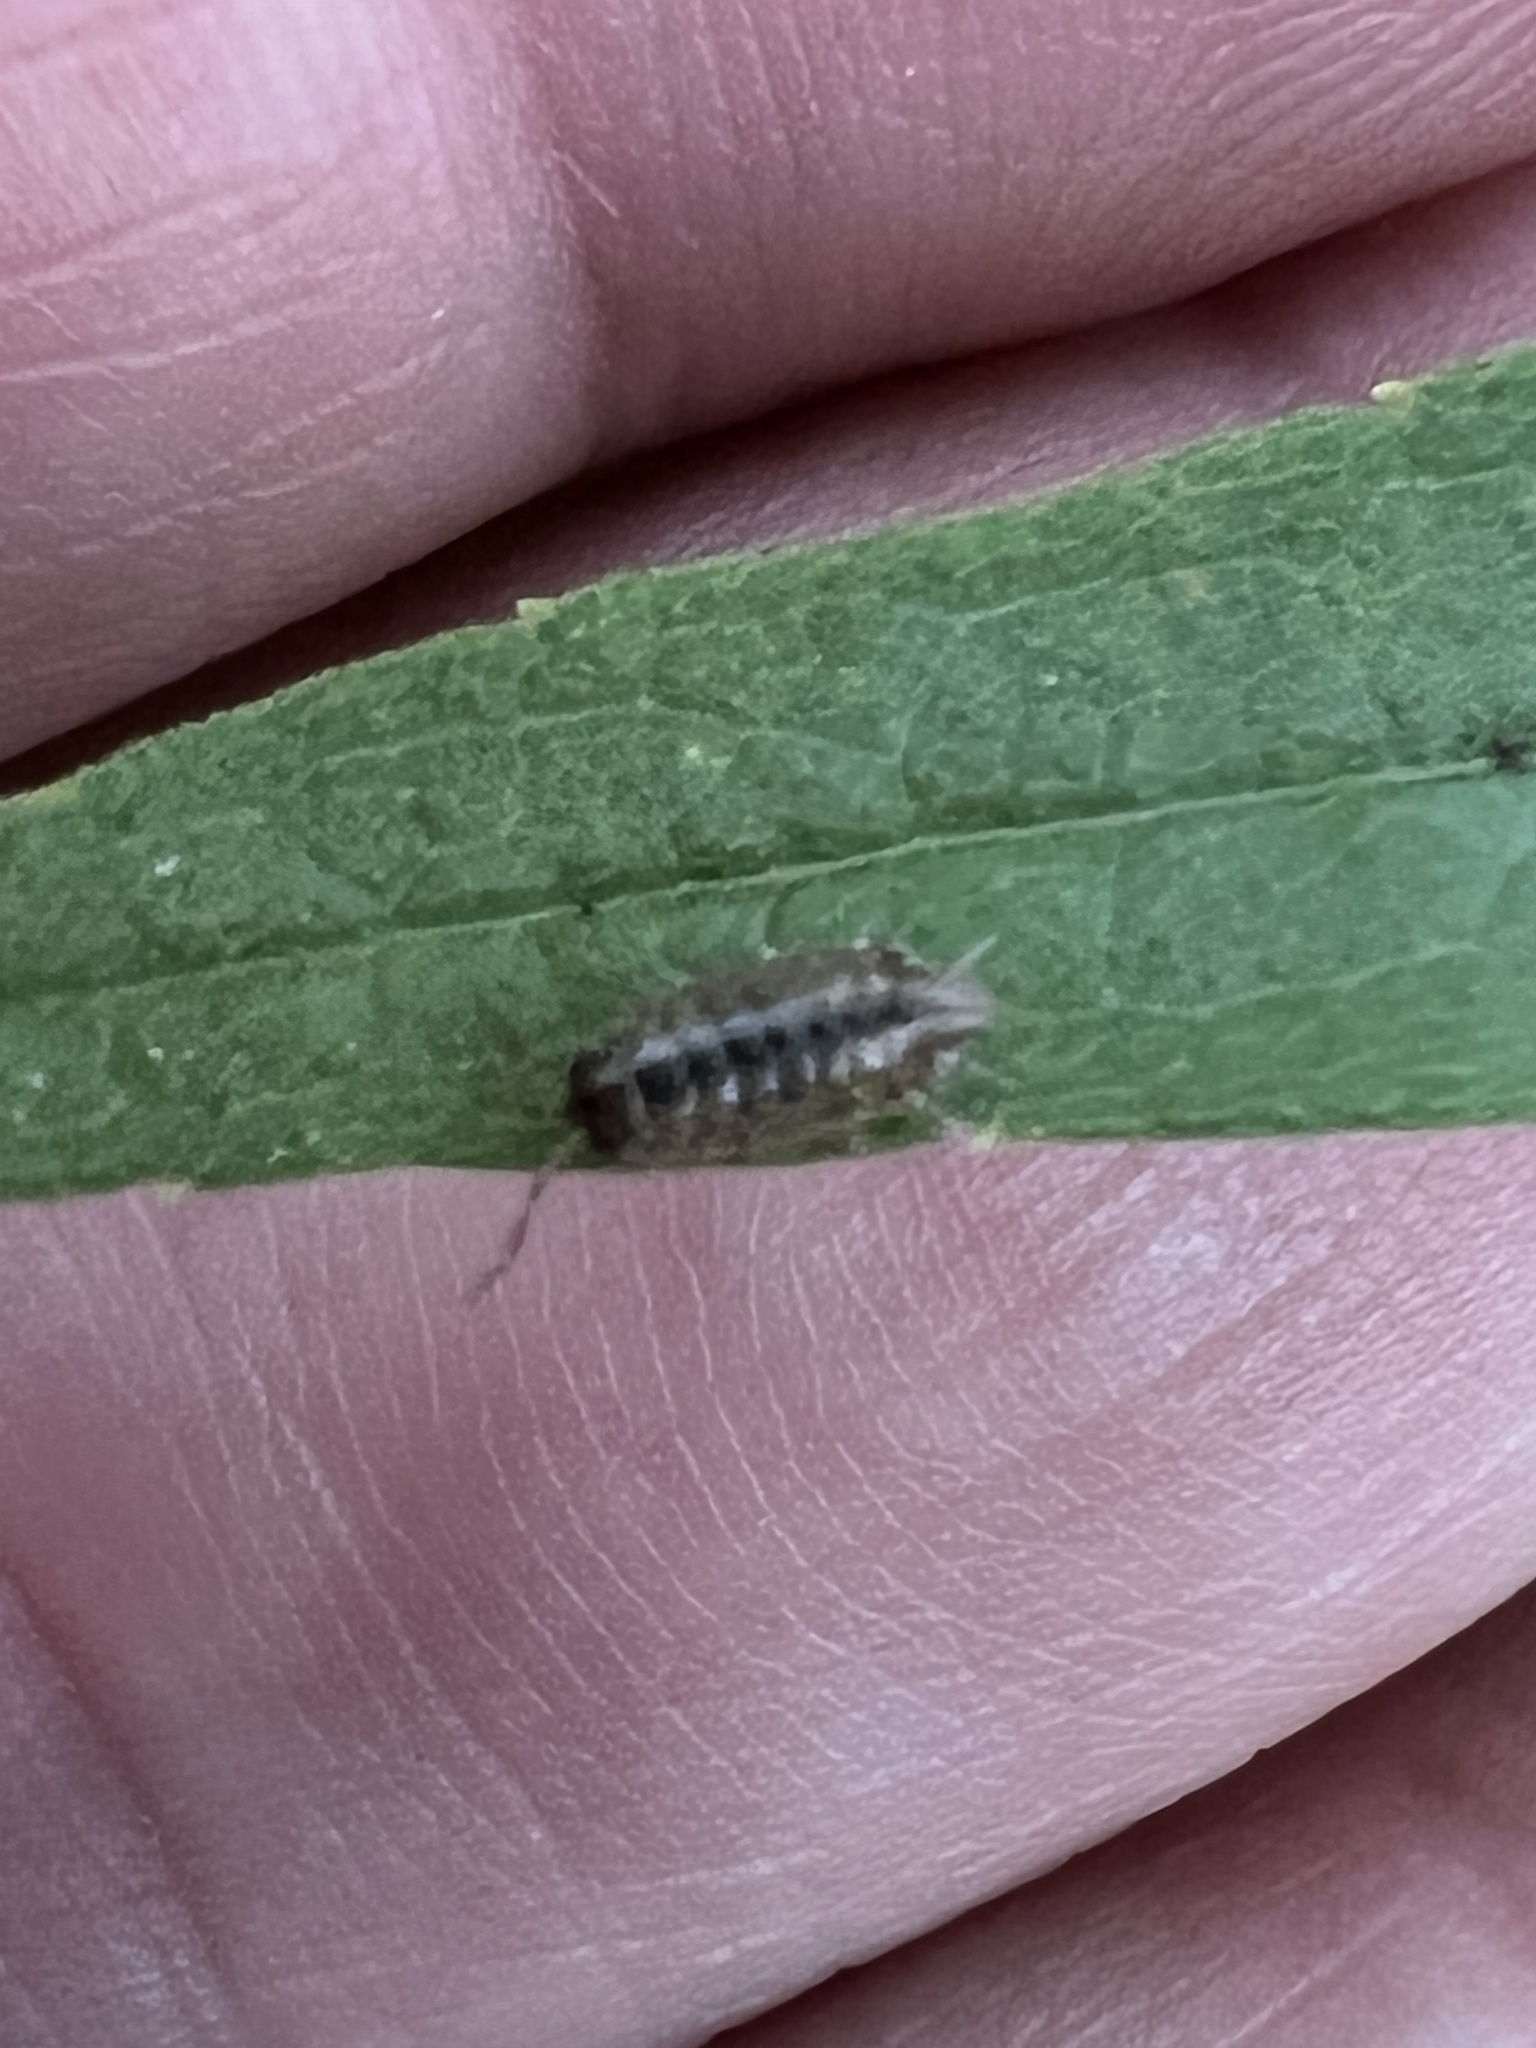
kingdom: Animalia
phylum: Arthropoda
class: Malacostraca
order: Isopoda
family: Philosciidae
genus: Philoscia
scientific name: Philoscia muscorum
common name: Common striped woodlouse
